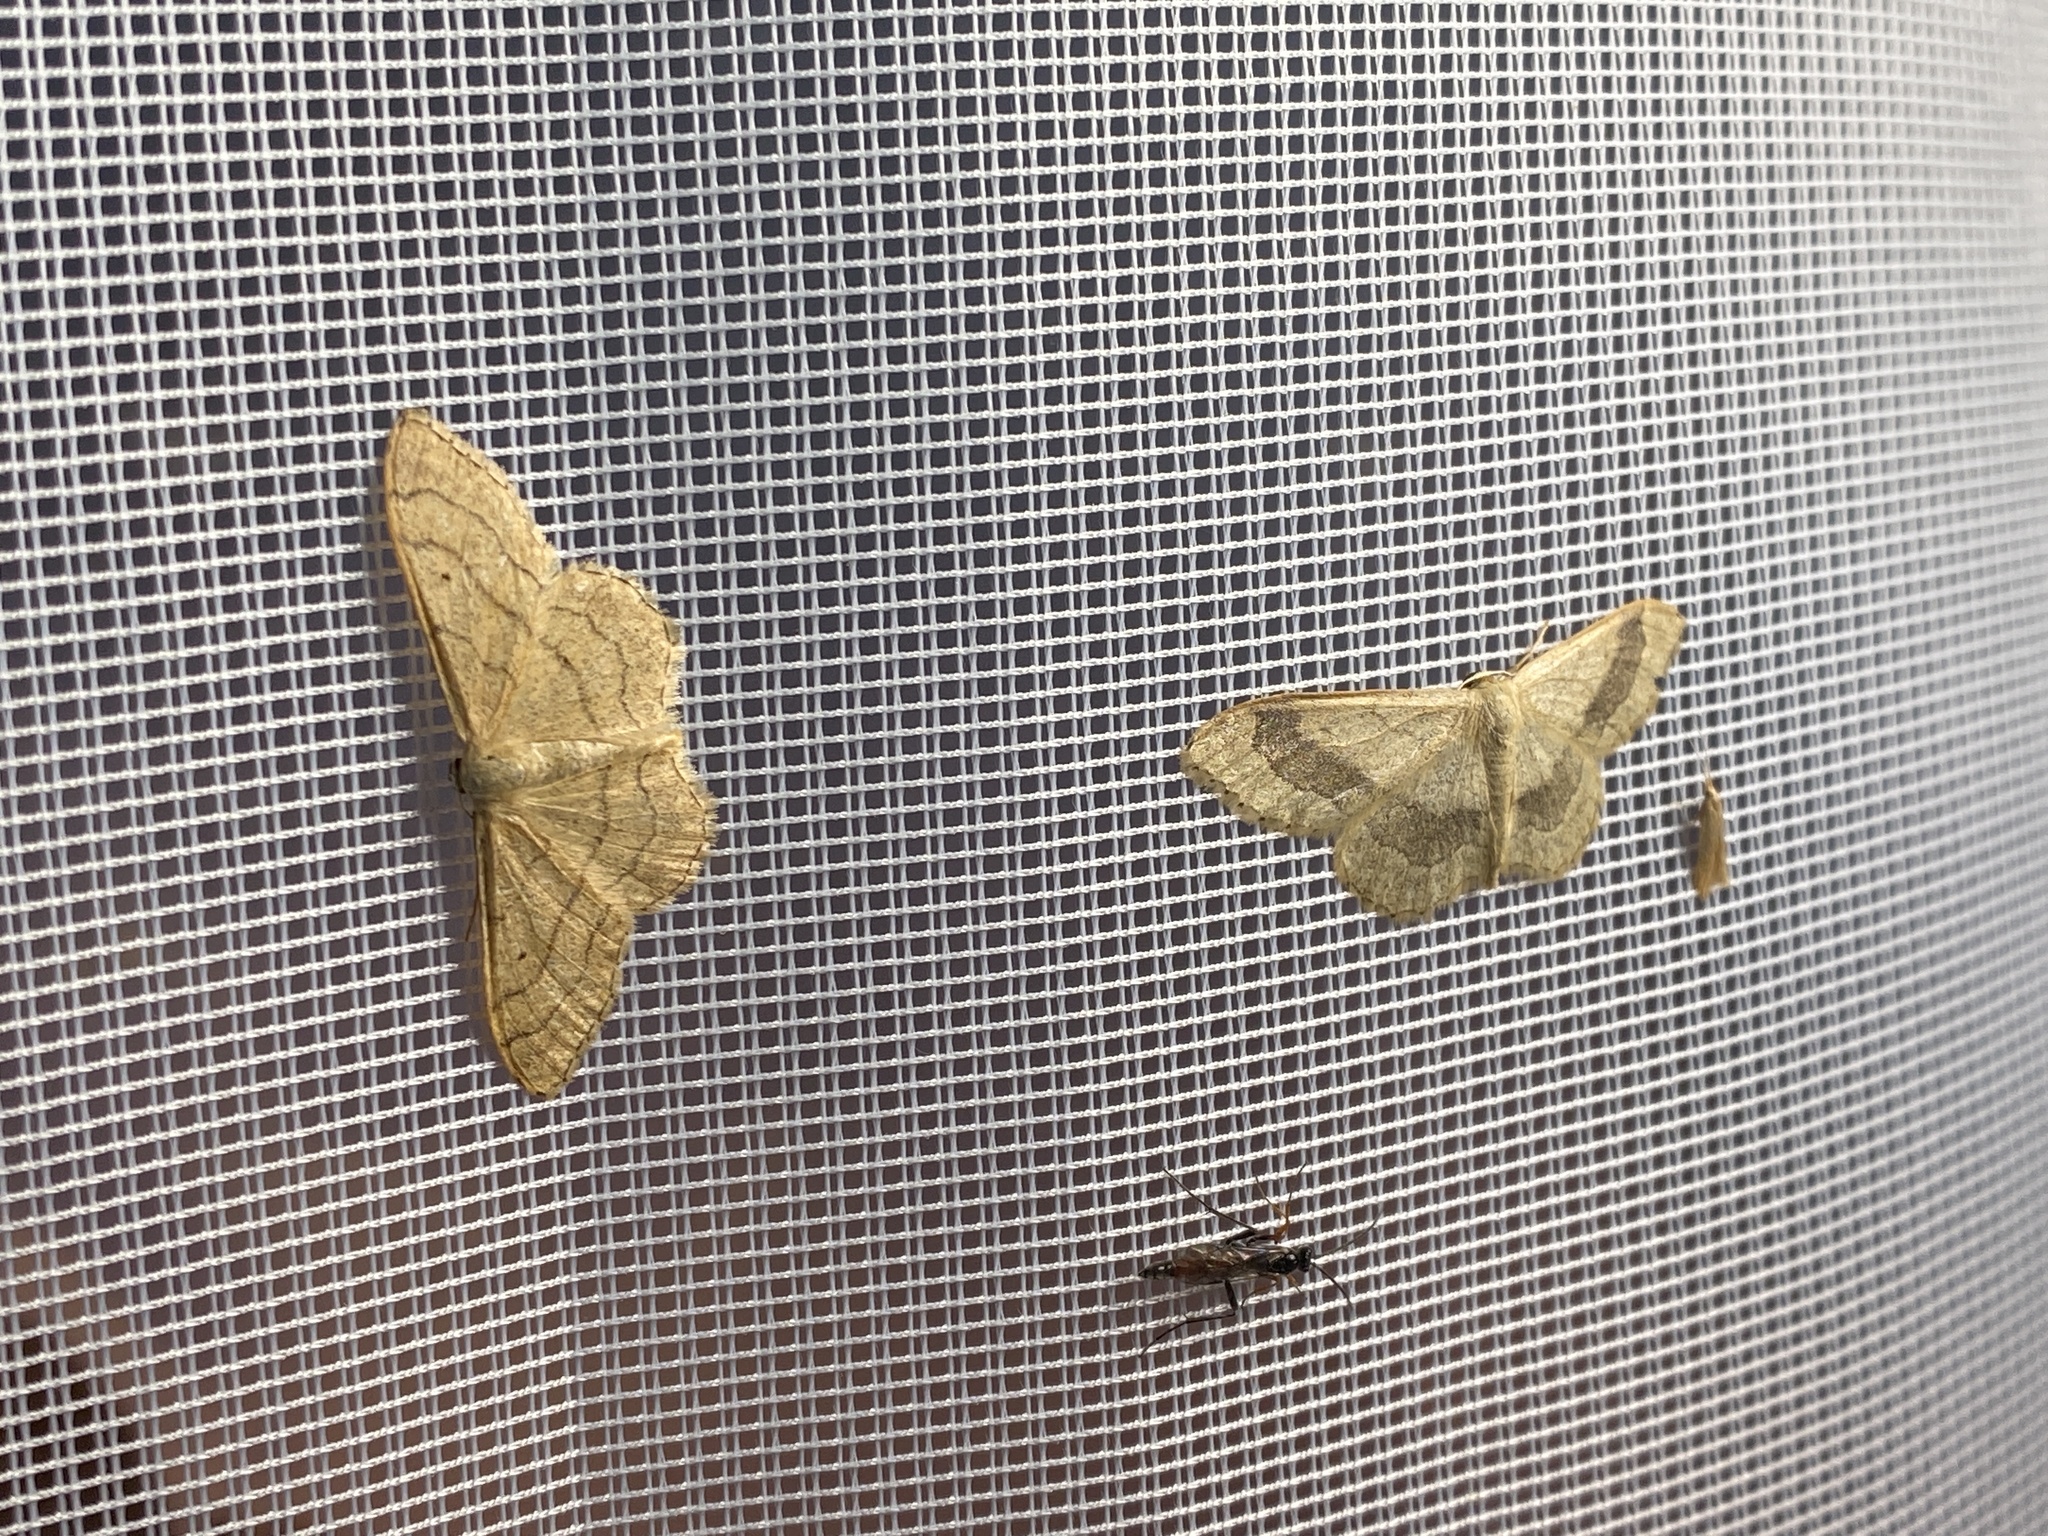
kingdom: Animalia
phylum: Arthropoda
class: Insecta
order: Lepidoptera
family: Geometridae
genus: Idaea
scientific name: Idaea aversata
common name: Riband wave
